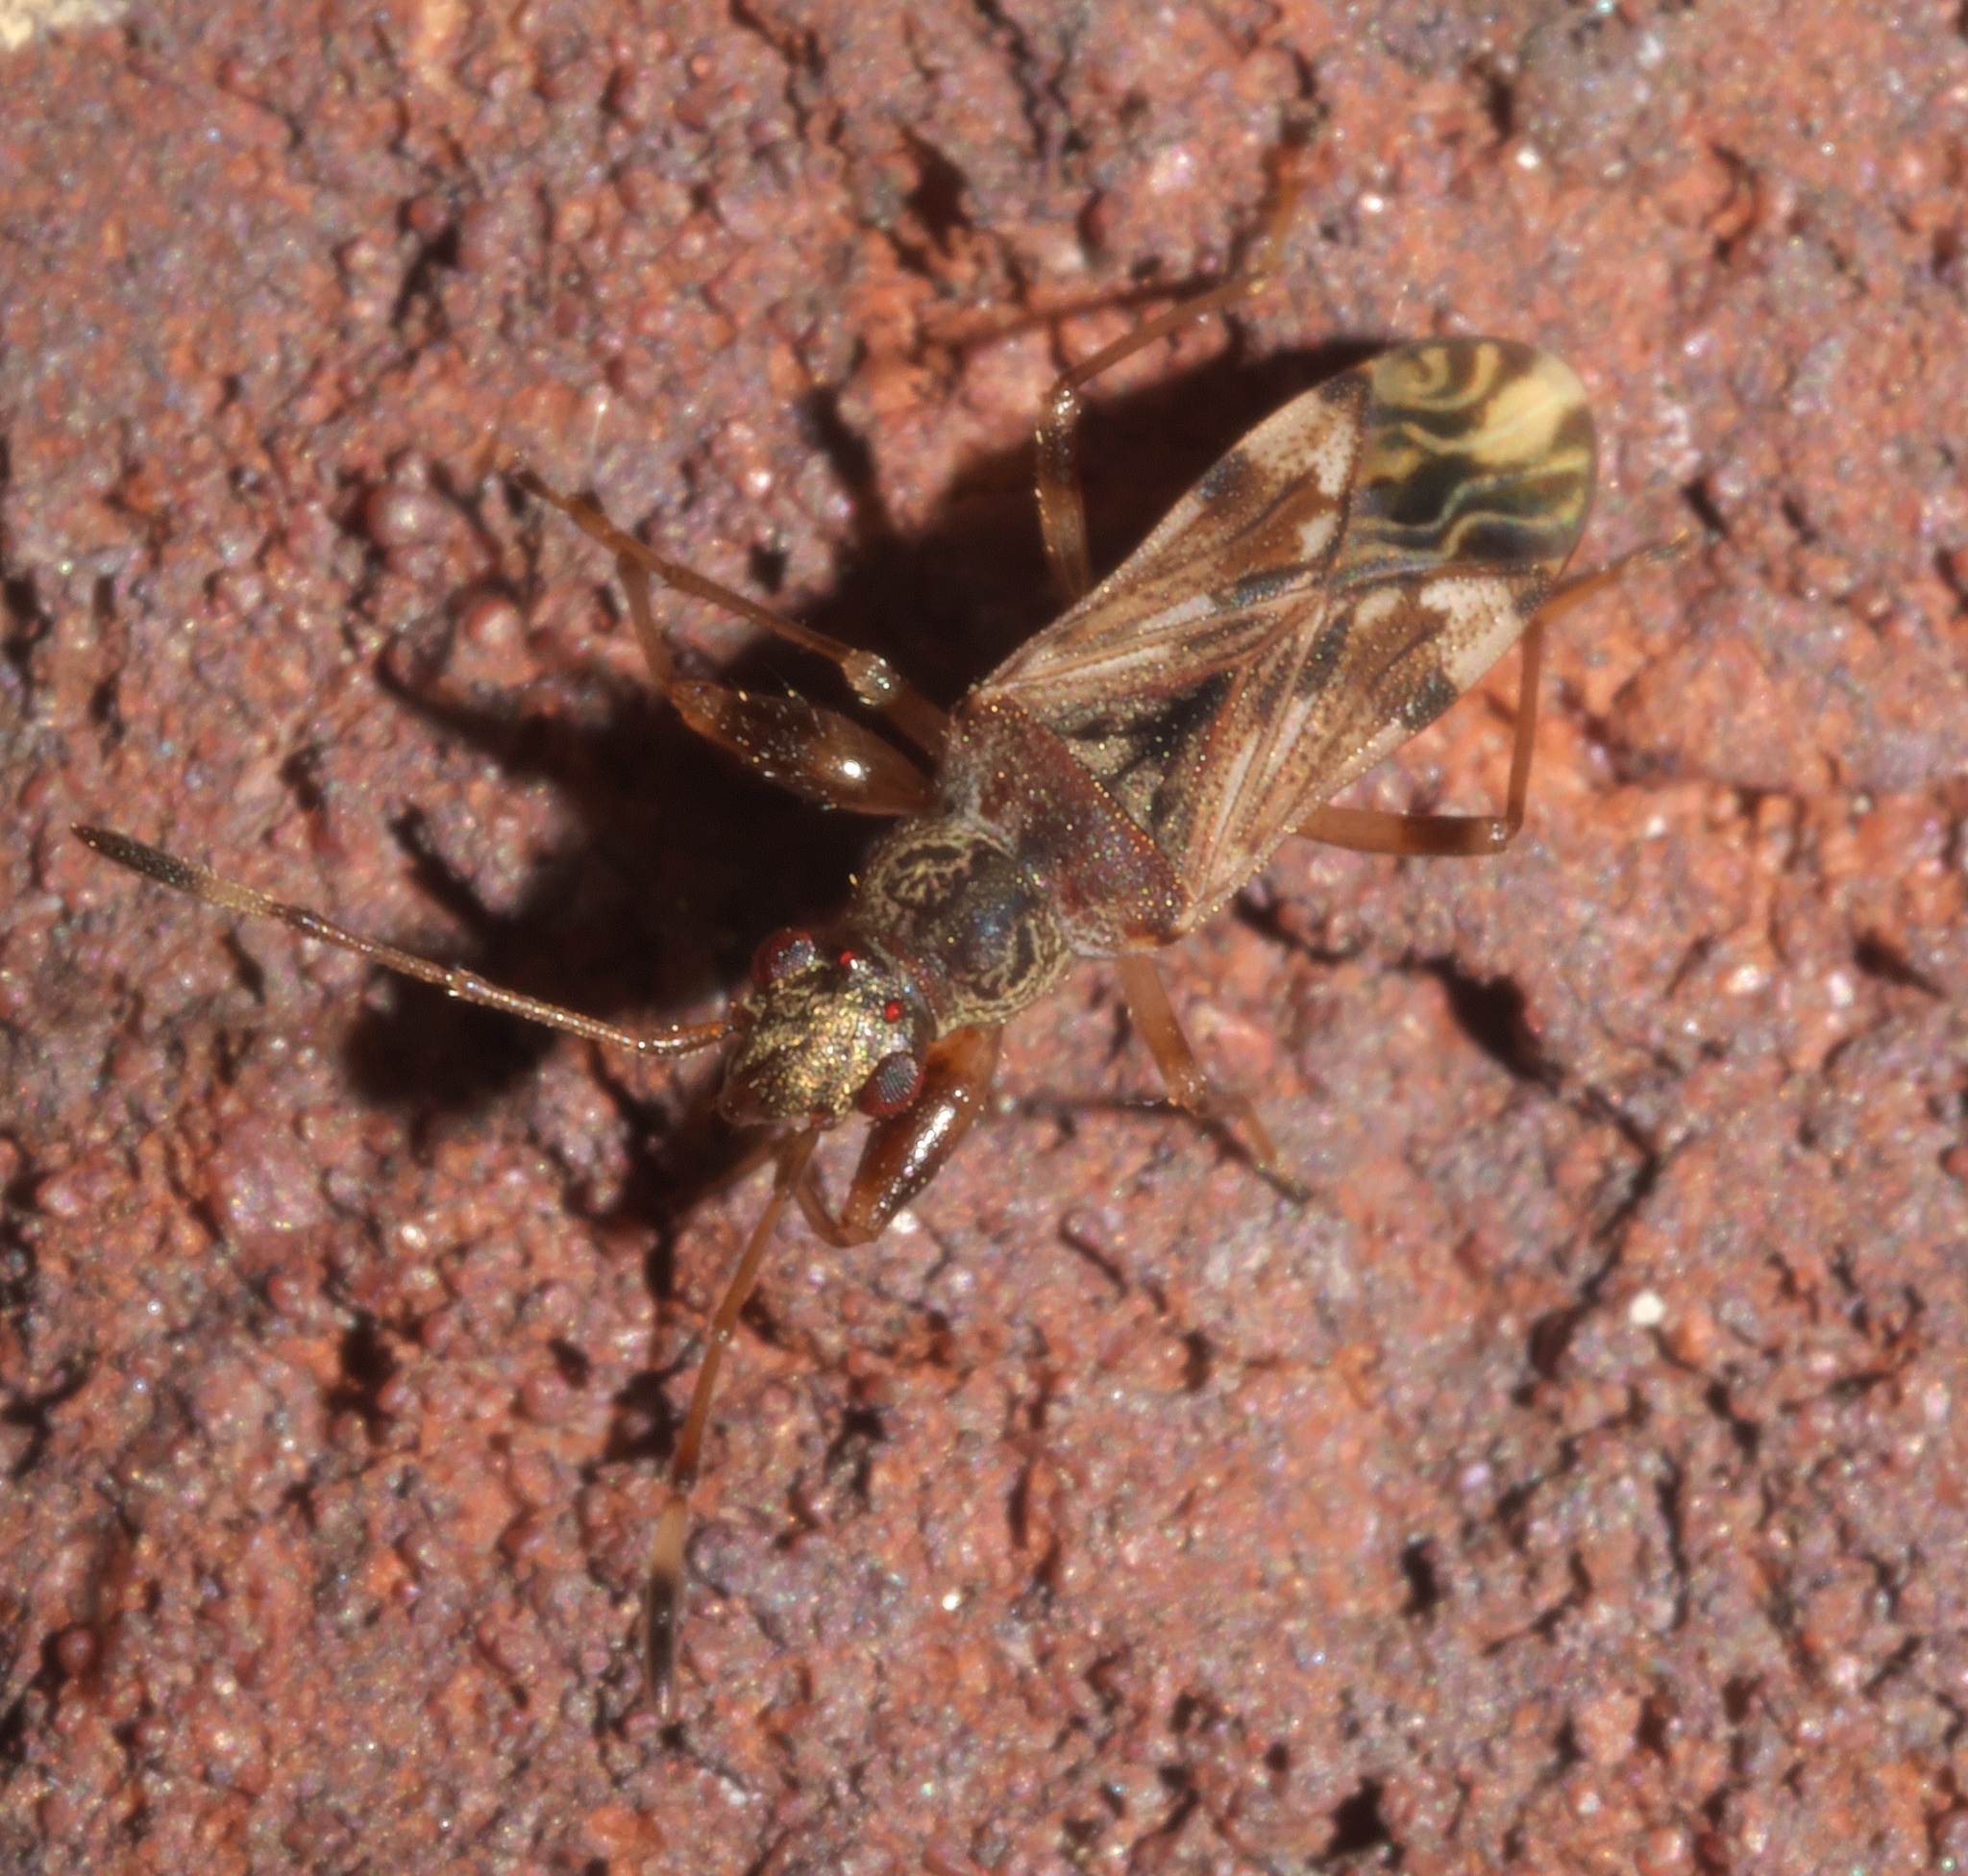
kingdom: Animalia
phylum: Arthropoda
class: Insecta
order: Hemiptera
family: Rhyparochromidae
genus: Neopamera
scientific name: Neopamera albocincta
